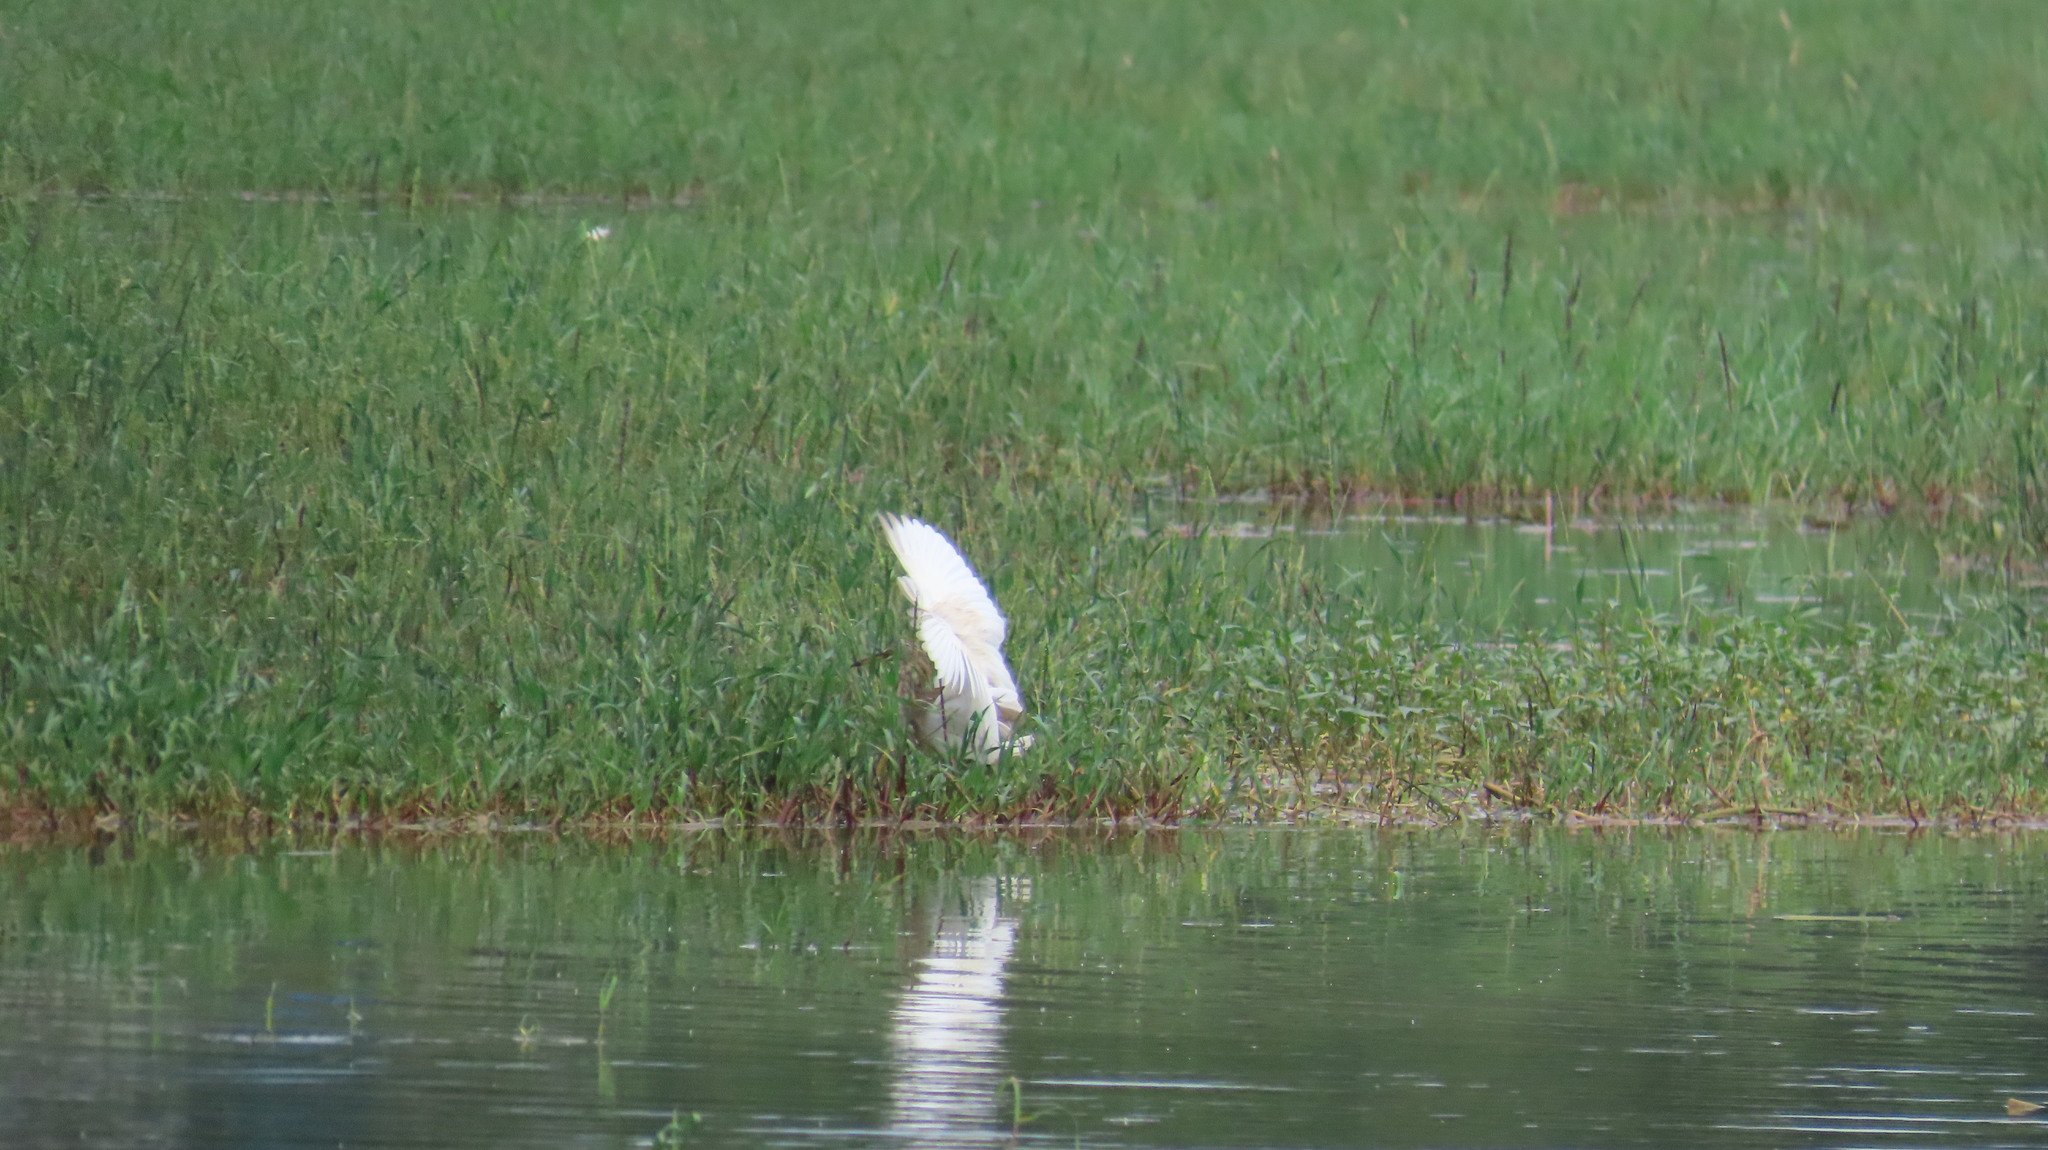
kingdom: Animalia
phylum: Chordata
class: Aves
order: Pelecaniformes
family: Ardeidae
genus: Ardeola
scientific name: Ardeola grayii
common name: Indian pond heron
